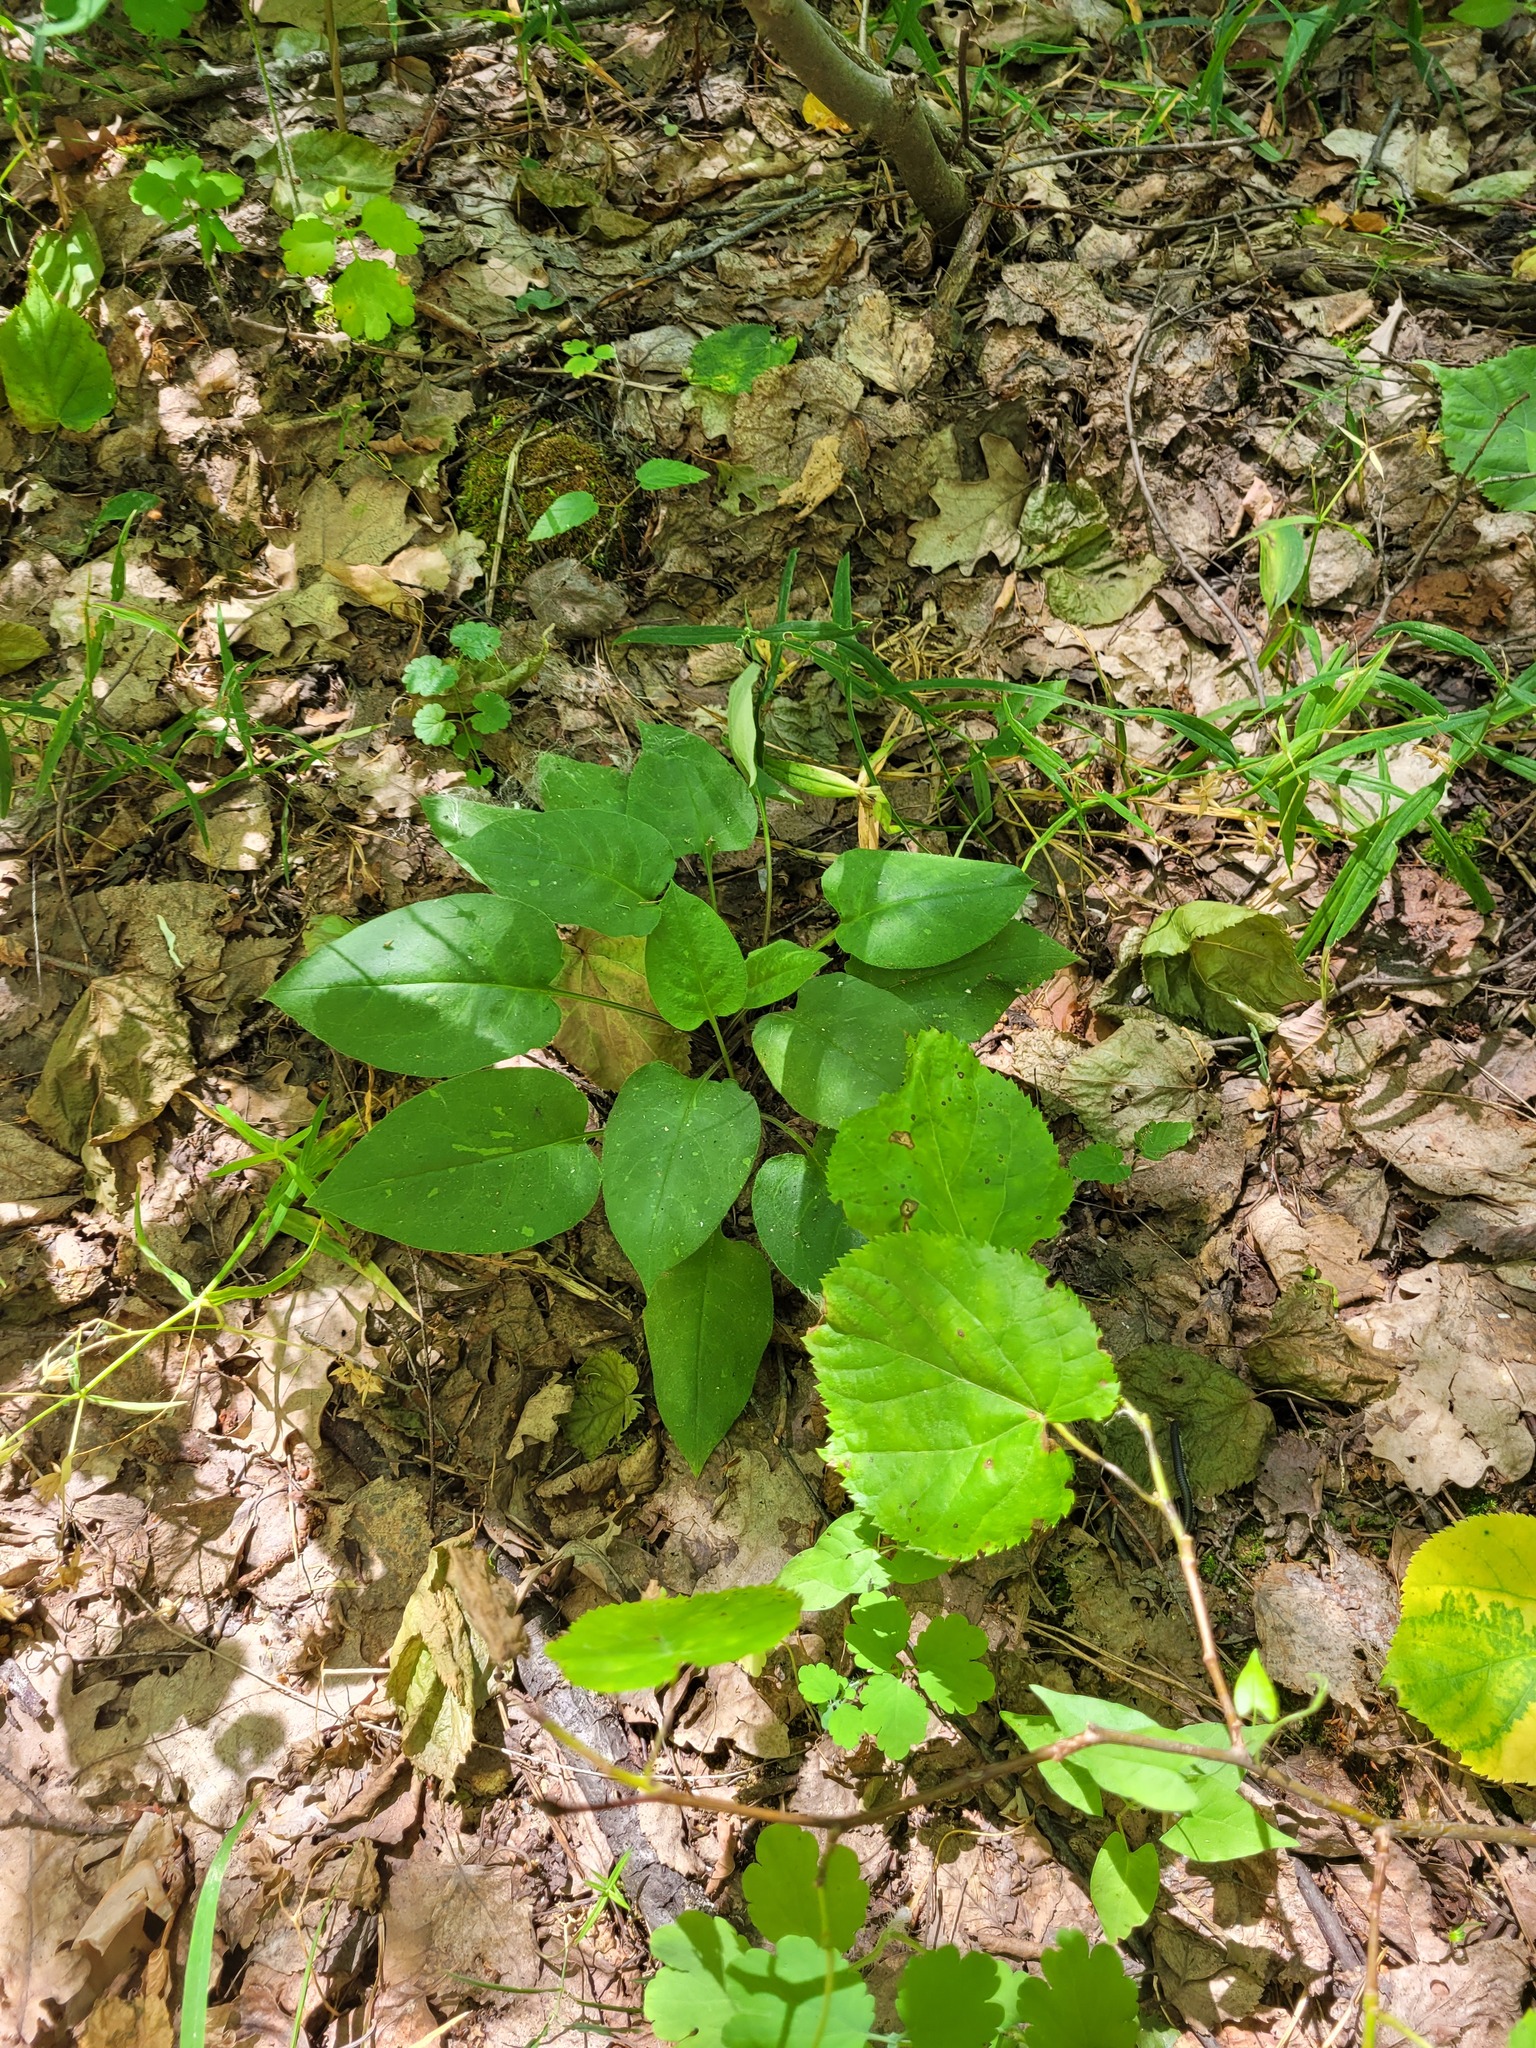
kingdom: Plantae
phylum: Tracheophyta
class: Magnoliopsida
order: Boraginales
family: Boraginaceae
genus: Pulmonaria
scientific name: Pulmonaria obscura
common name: Suffolk lungwort
